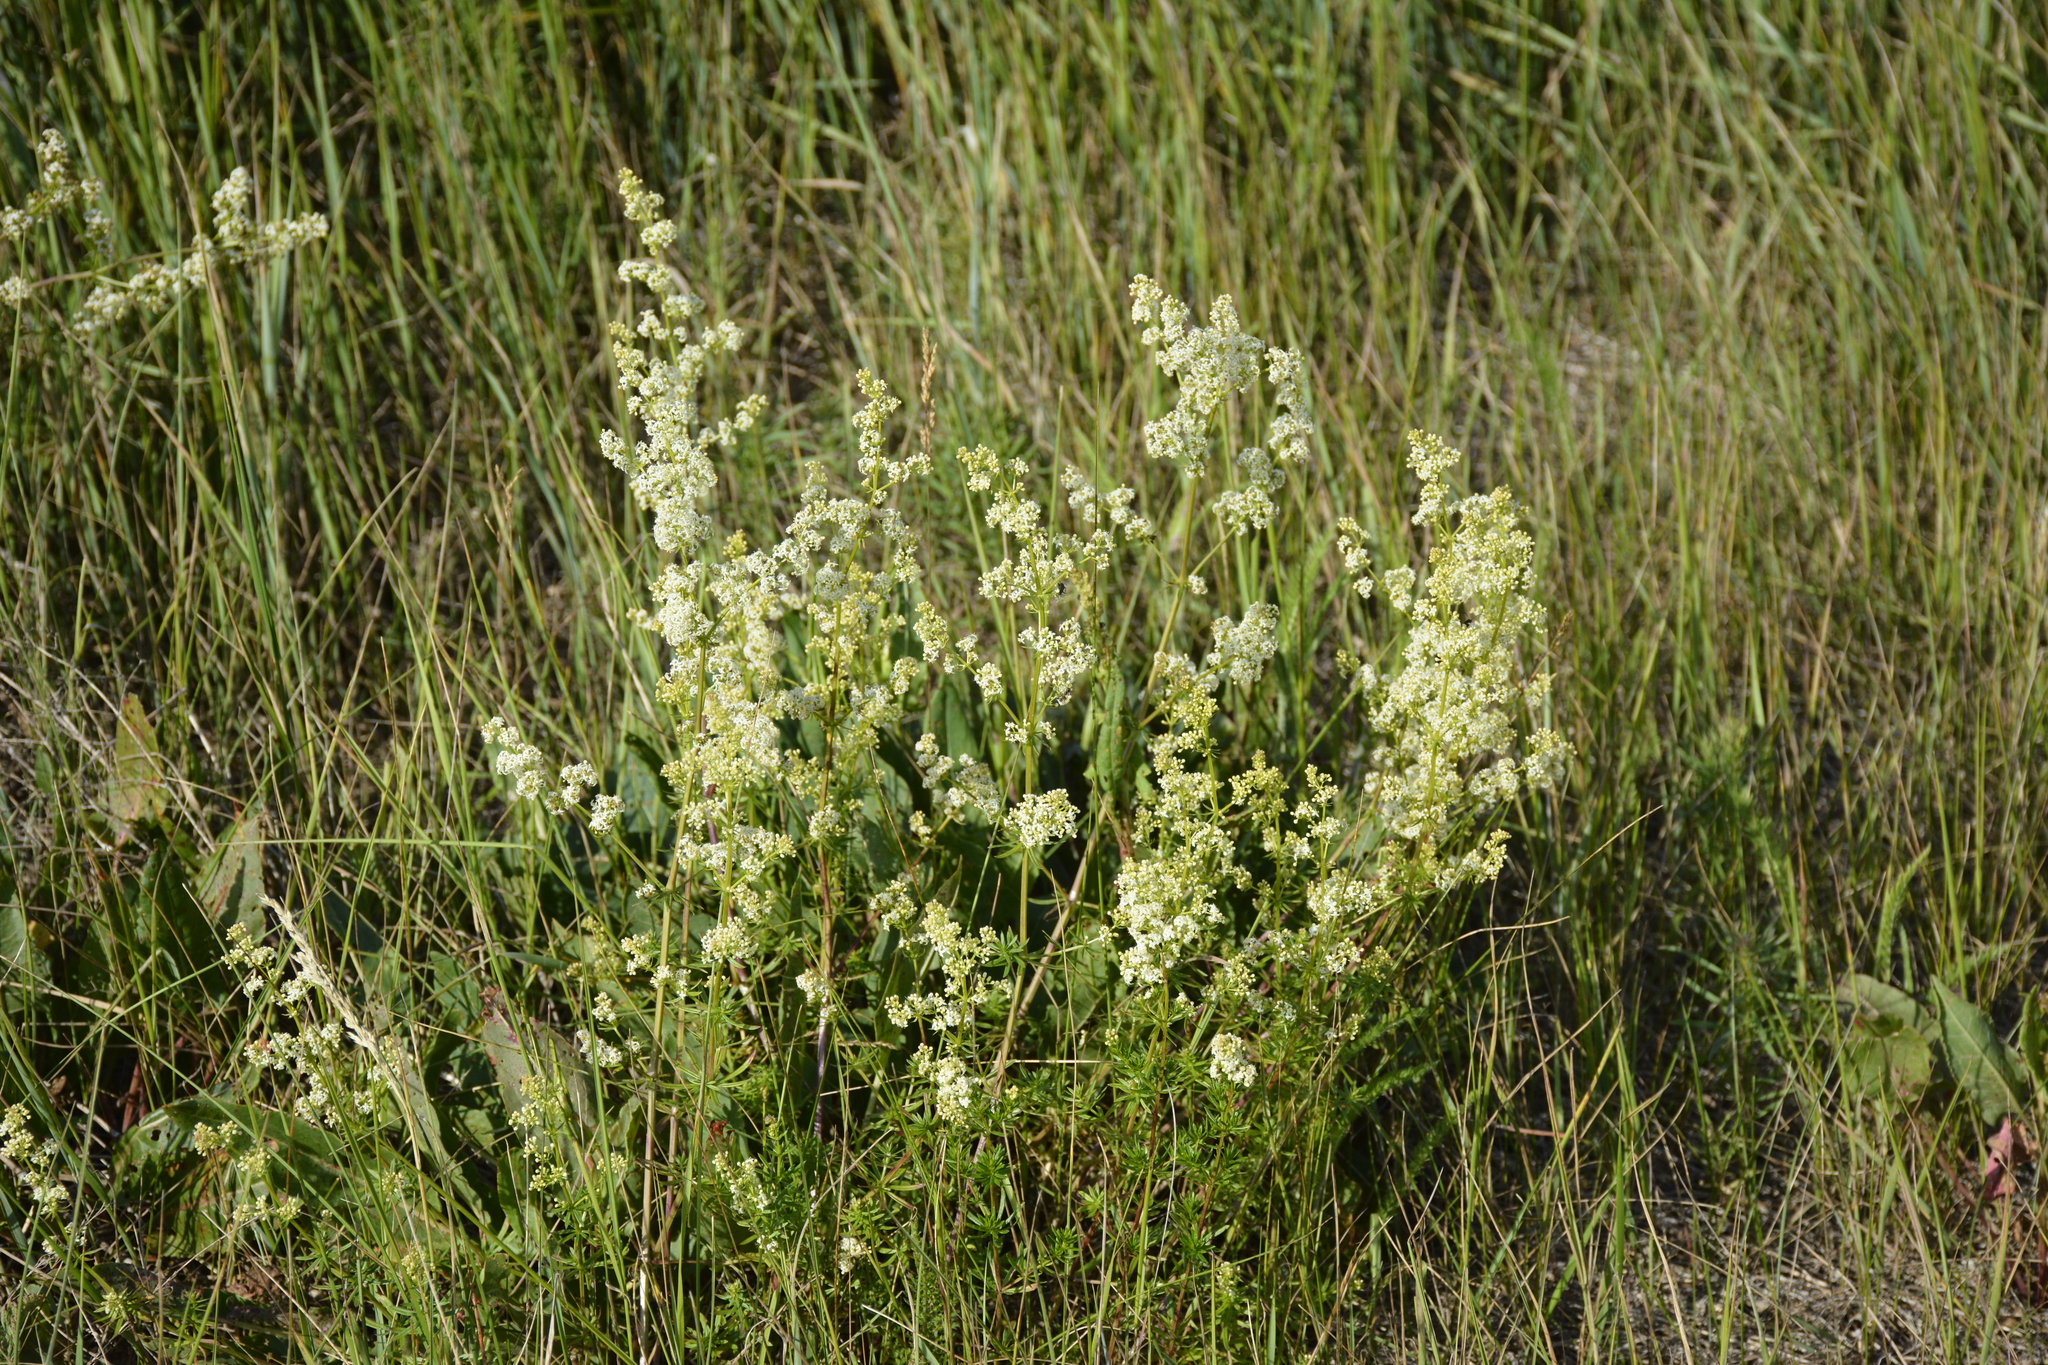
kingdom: Plantae
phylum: Tracheophyta
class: Magnoliopsida
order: Gentianales
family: Rubiaceae
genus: Galium
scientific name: Galium mollugo
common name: Hedge bedstraw
